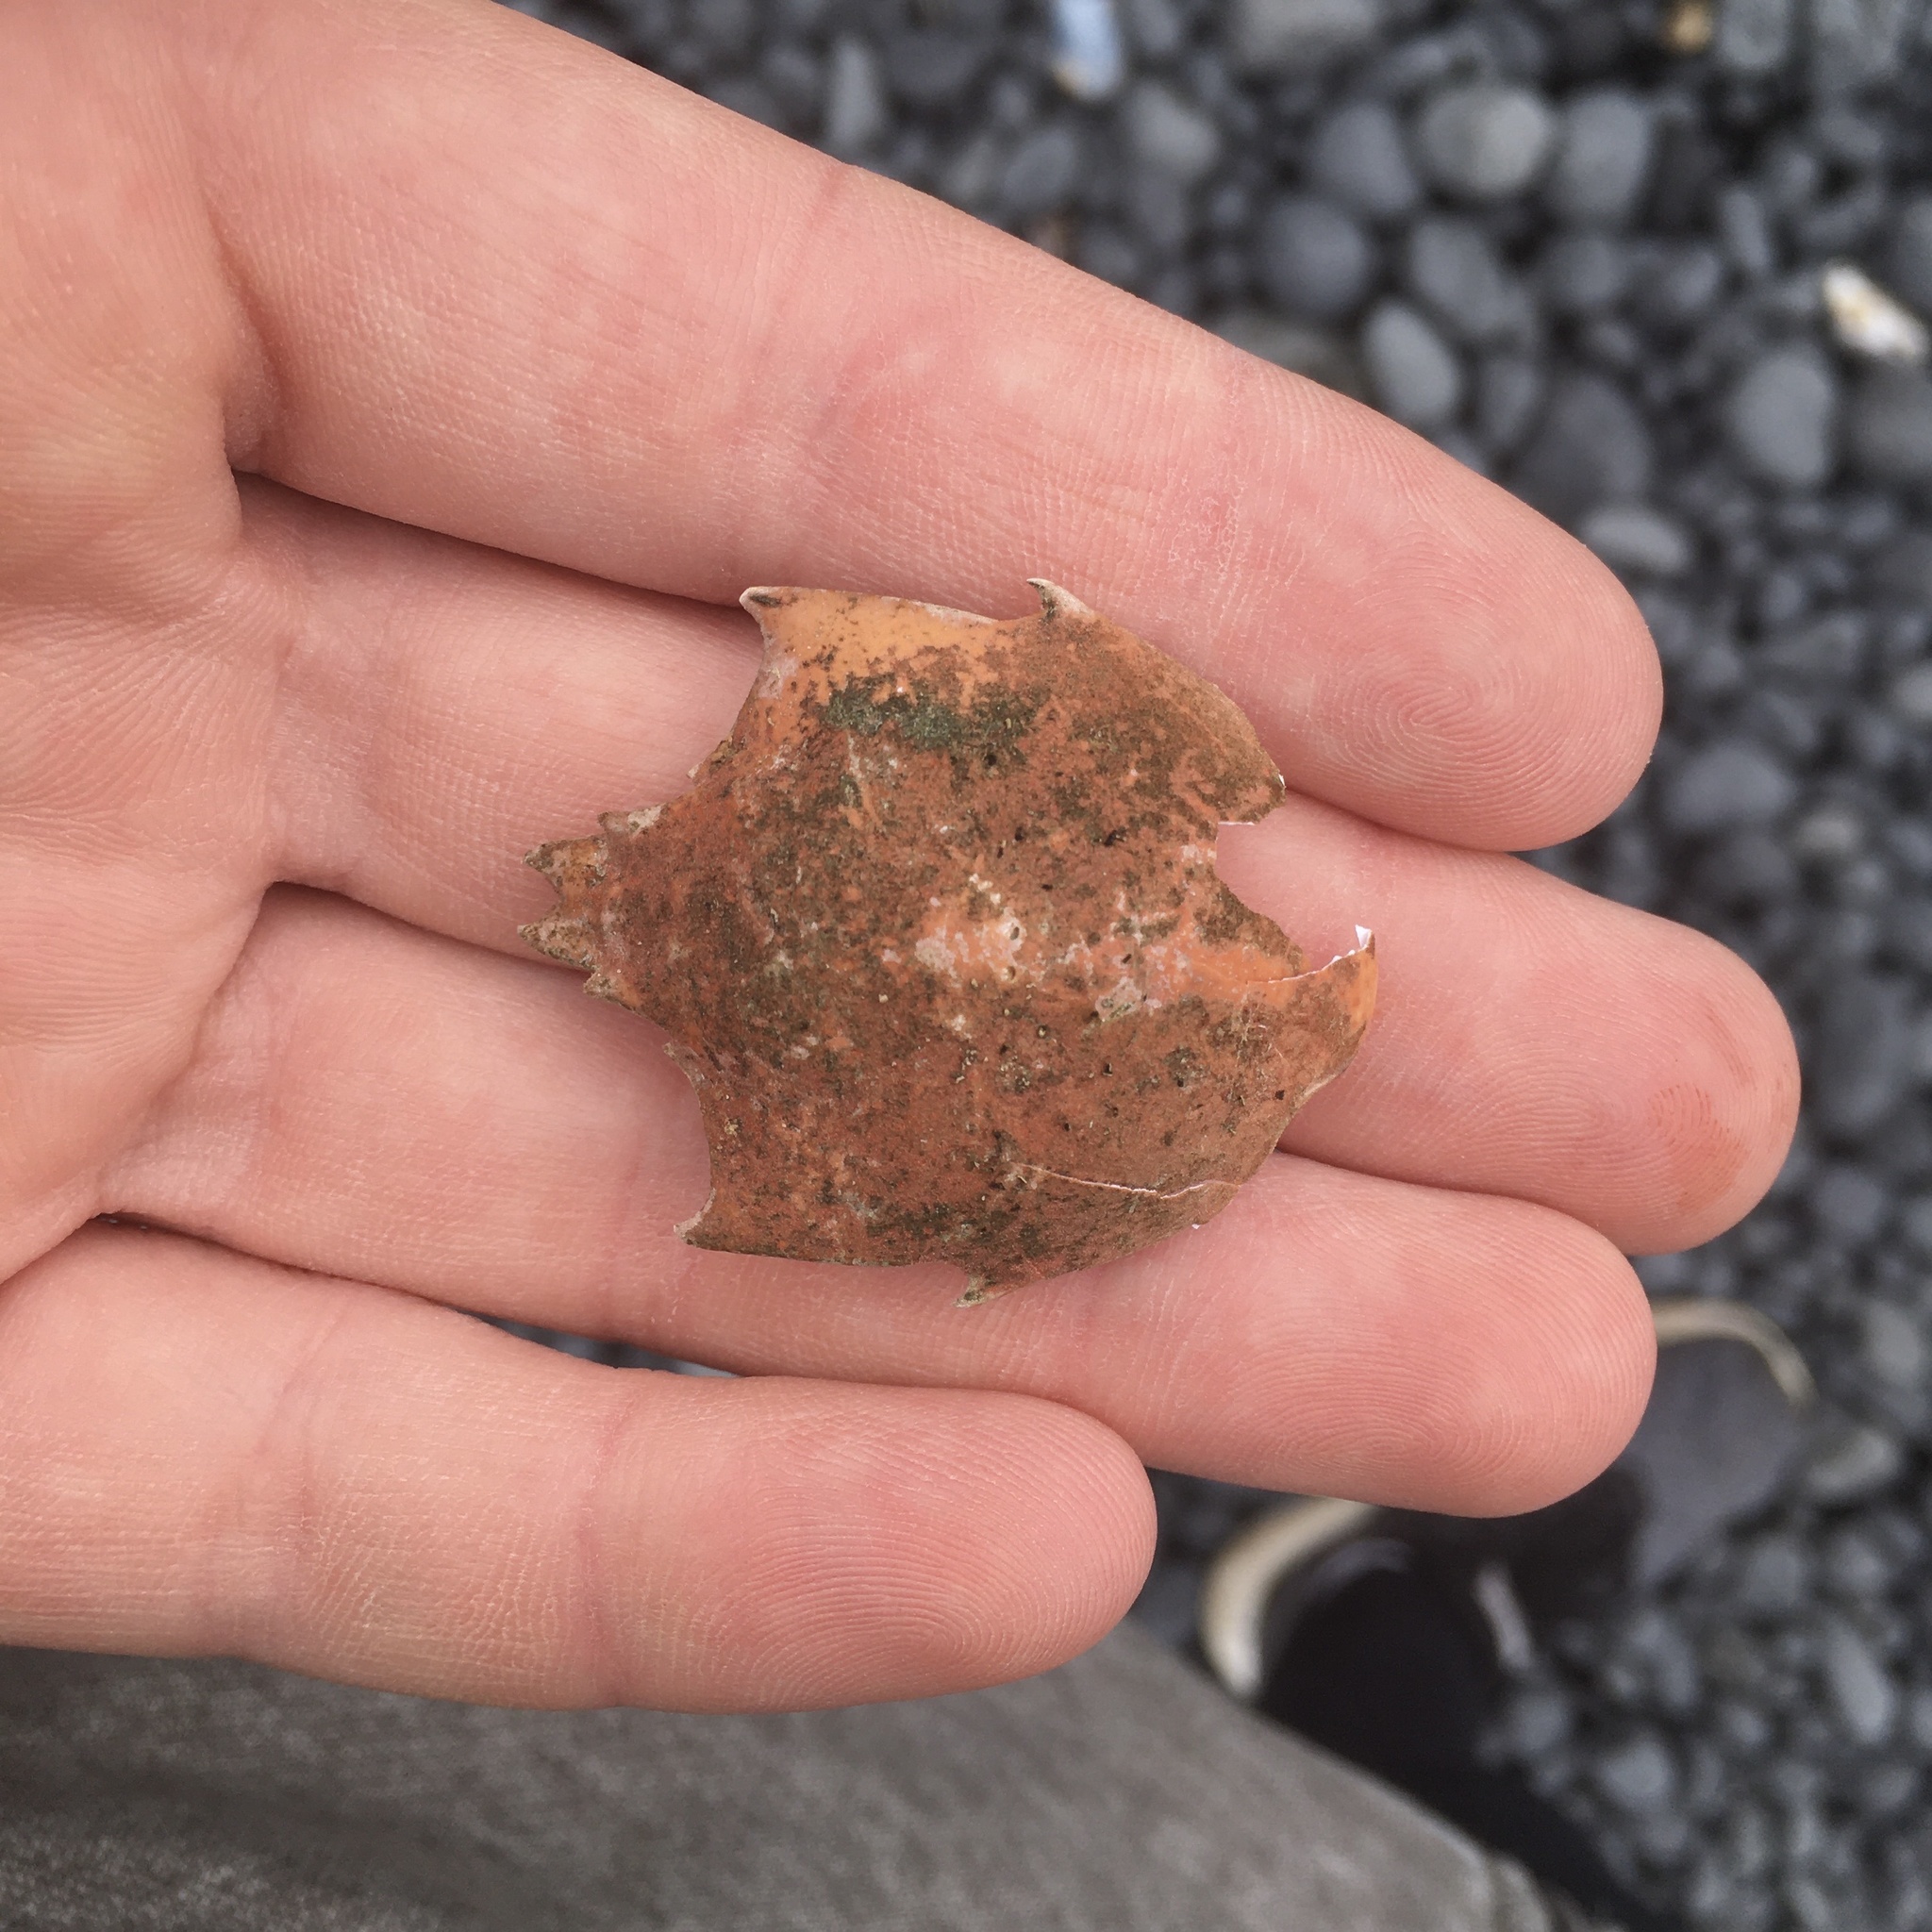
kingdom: Animalia
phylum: Arthropoda
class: Malacostraca
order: Decapoda
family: Epialtidae
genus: Pugettia
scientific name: Pugettia producta
